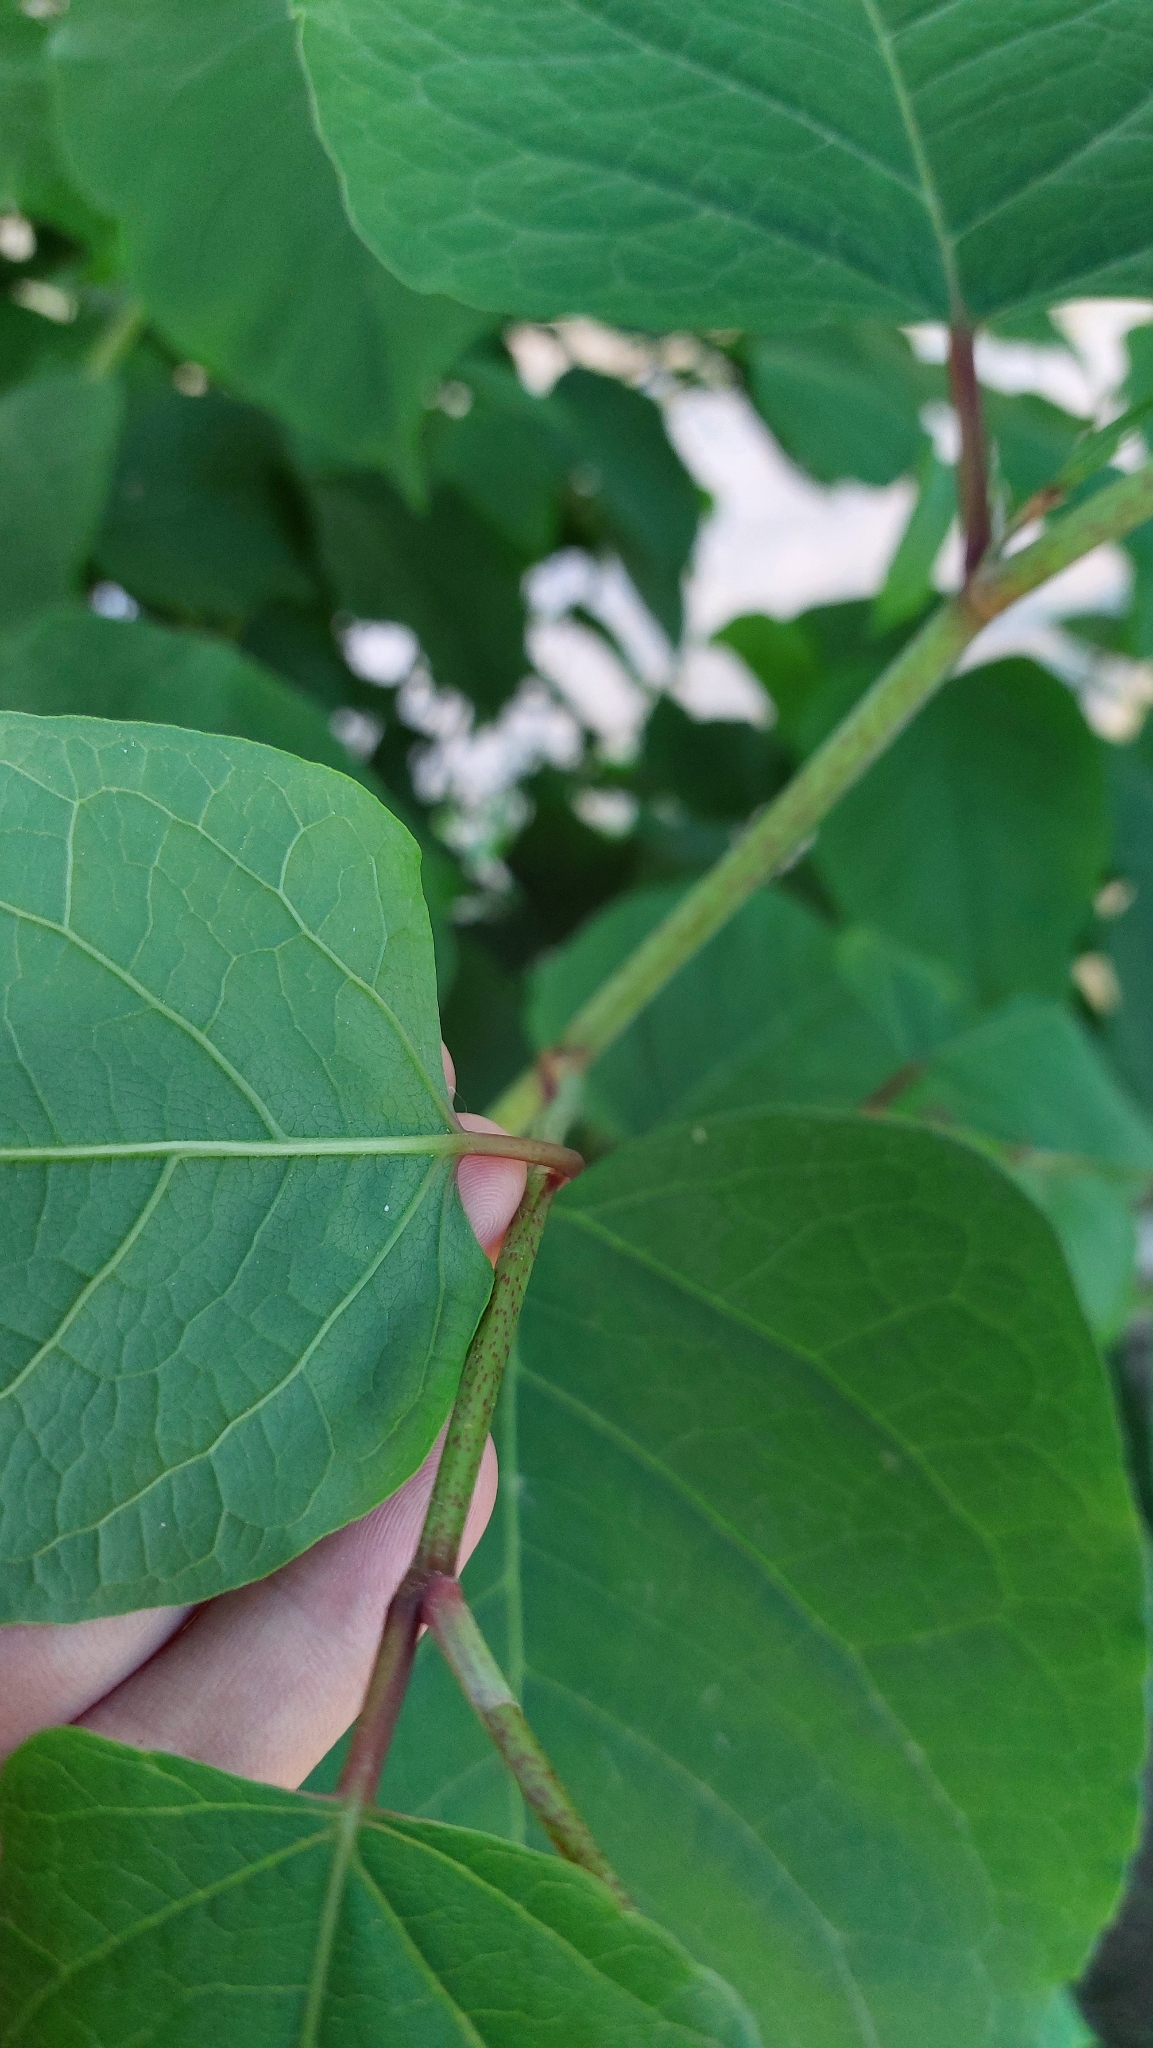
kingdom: Plantae
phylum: Tracheophyta
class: Magnoliopsida
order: Caryophyllales
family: Polygonaceae
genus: Reynoutria
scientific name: Reynoutria japonica
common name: Japanese knotweed
